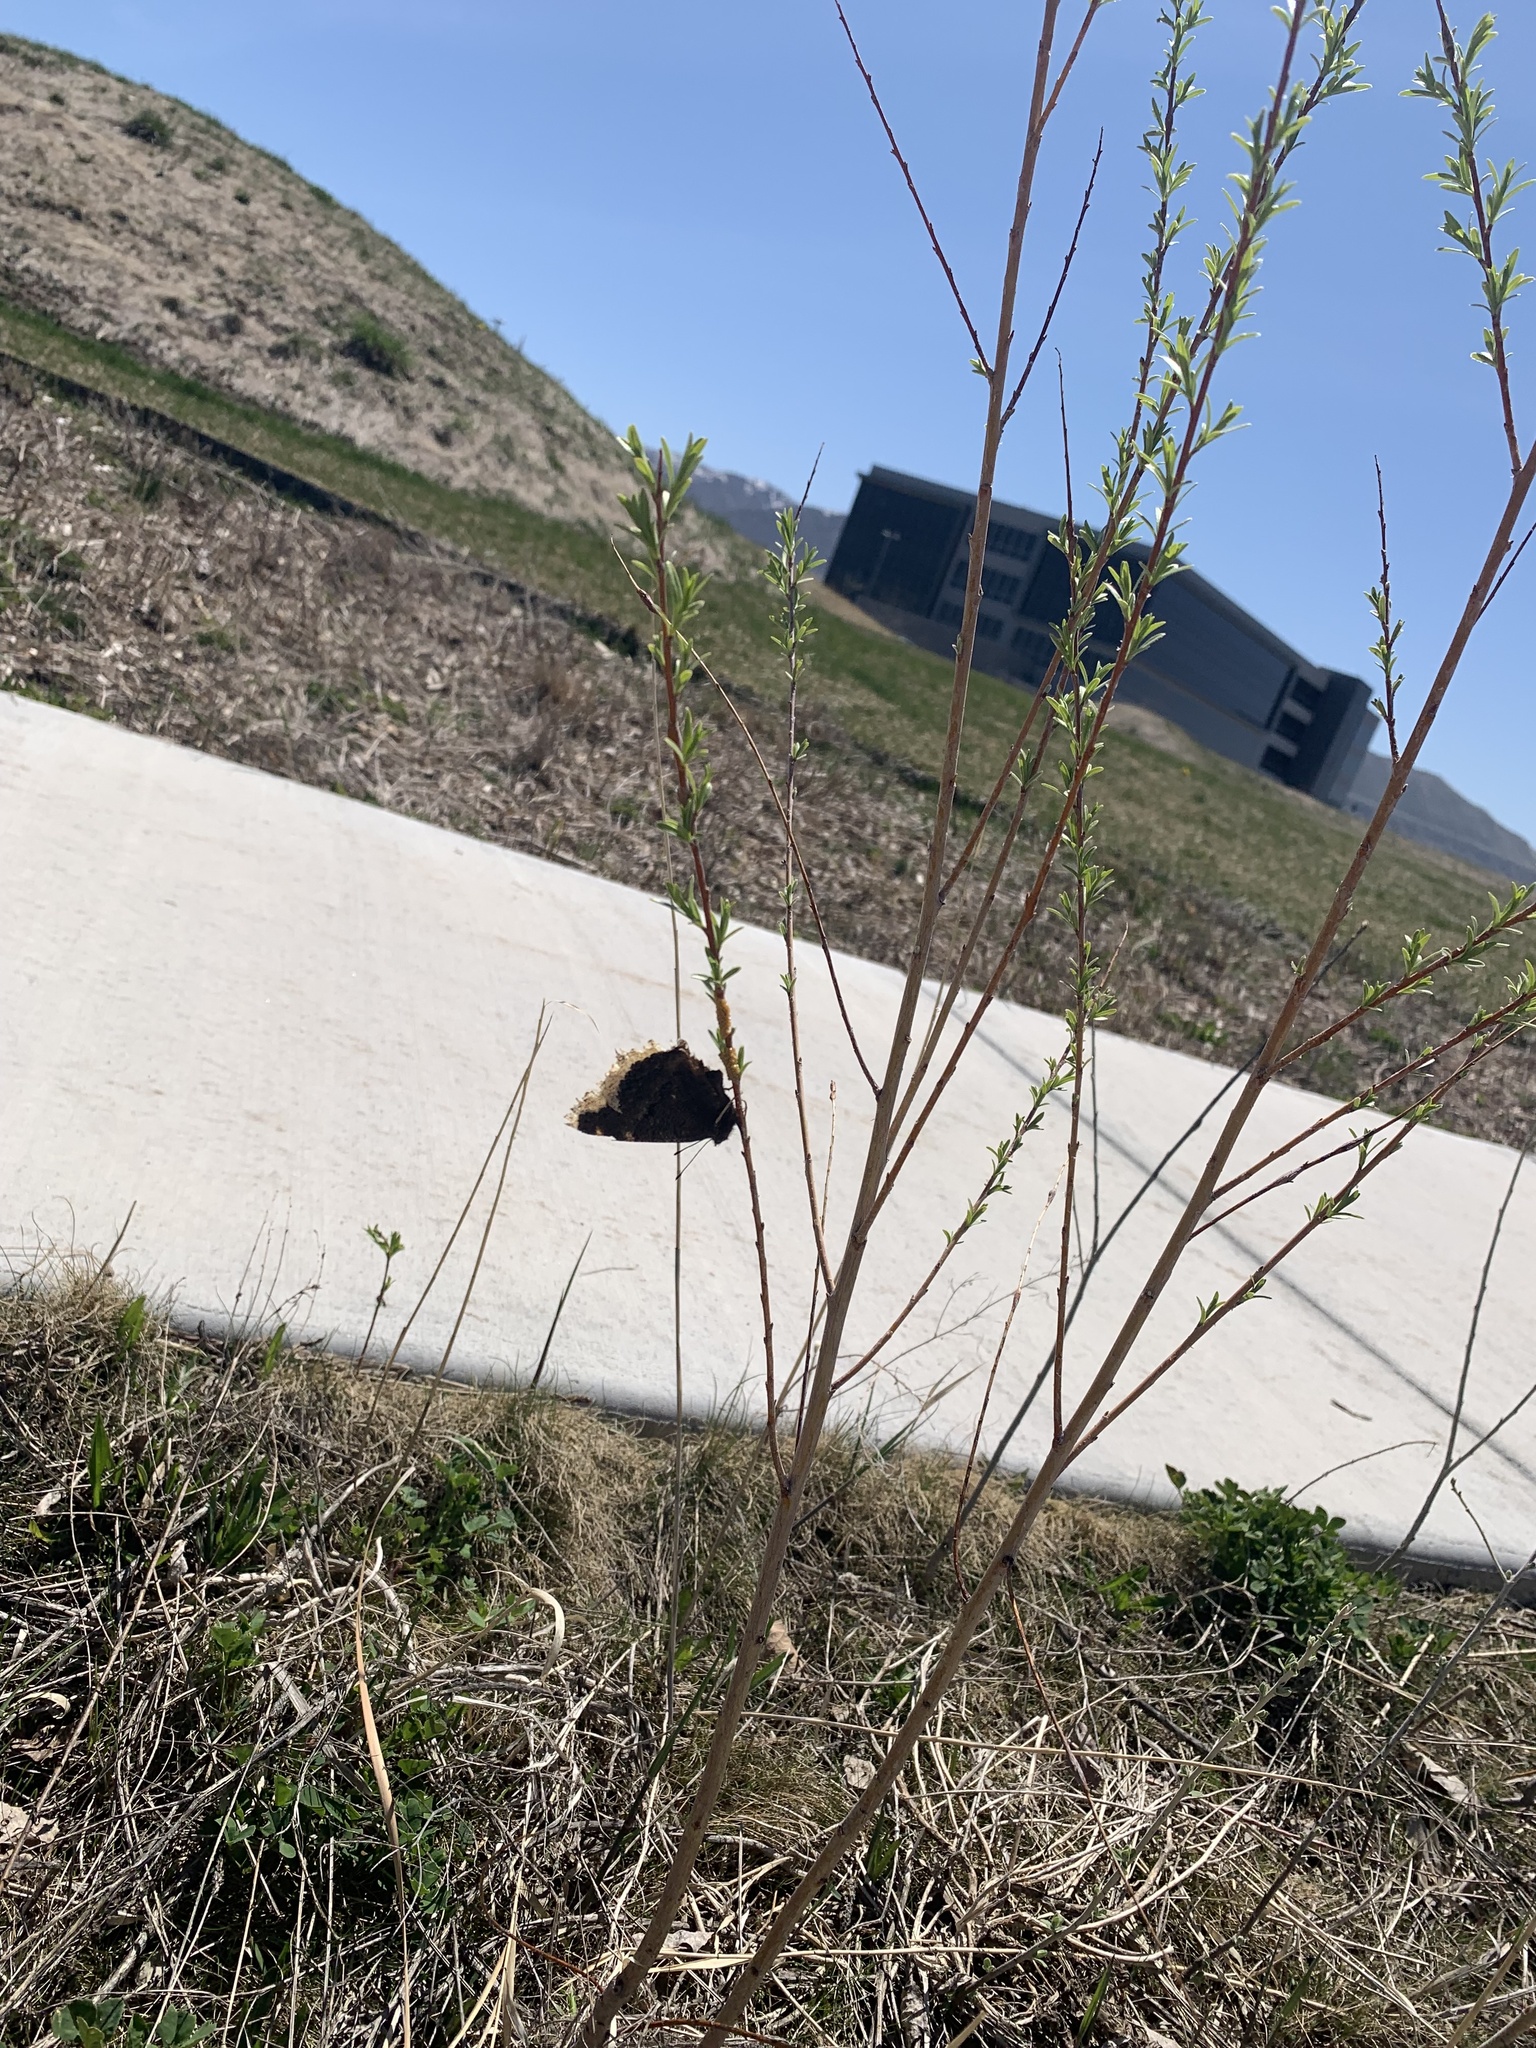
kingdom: Animalia
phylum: Arthropoda
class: Insecta
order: Lepidoptera
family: Nymphalidae
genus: Nymphalis
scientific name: Nymphalis antiopa
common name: Camberwell beauty
